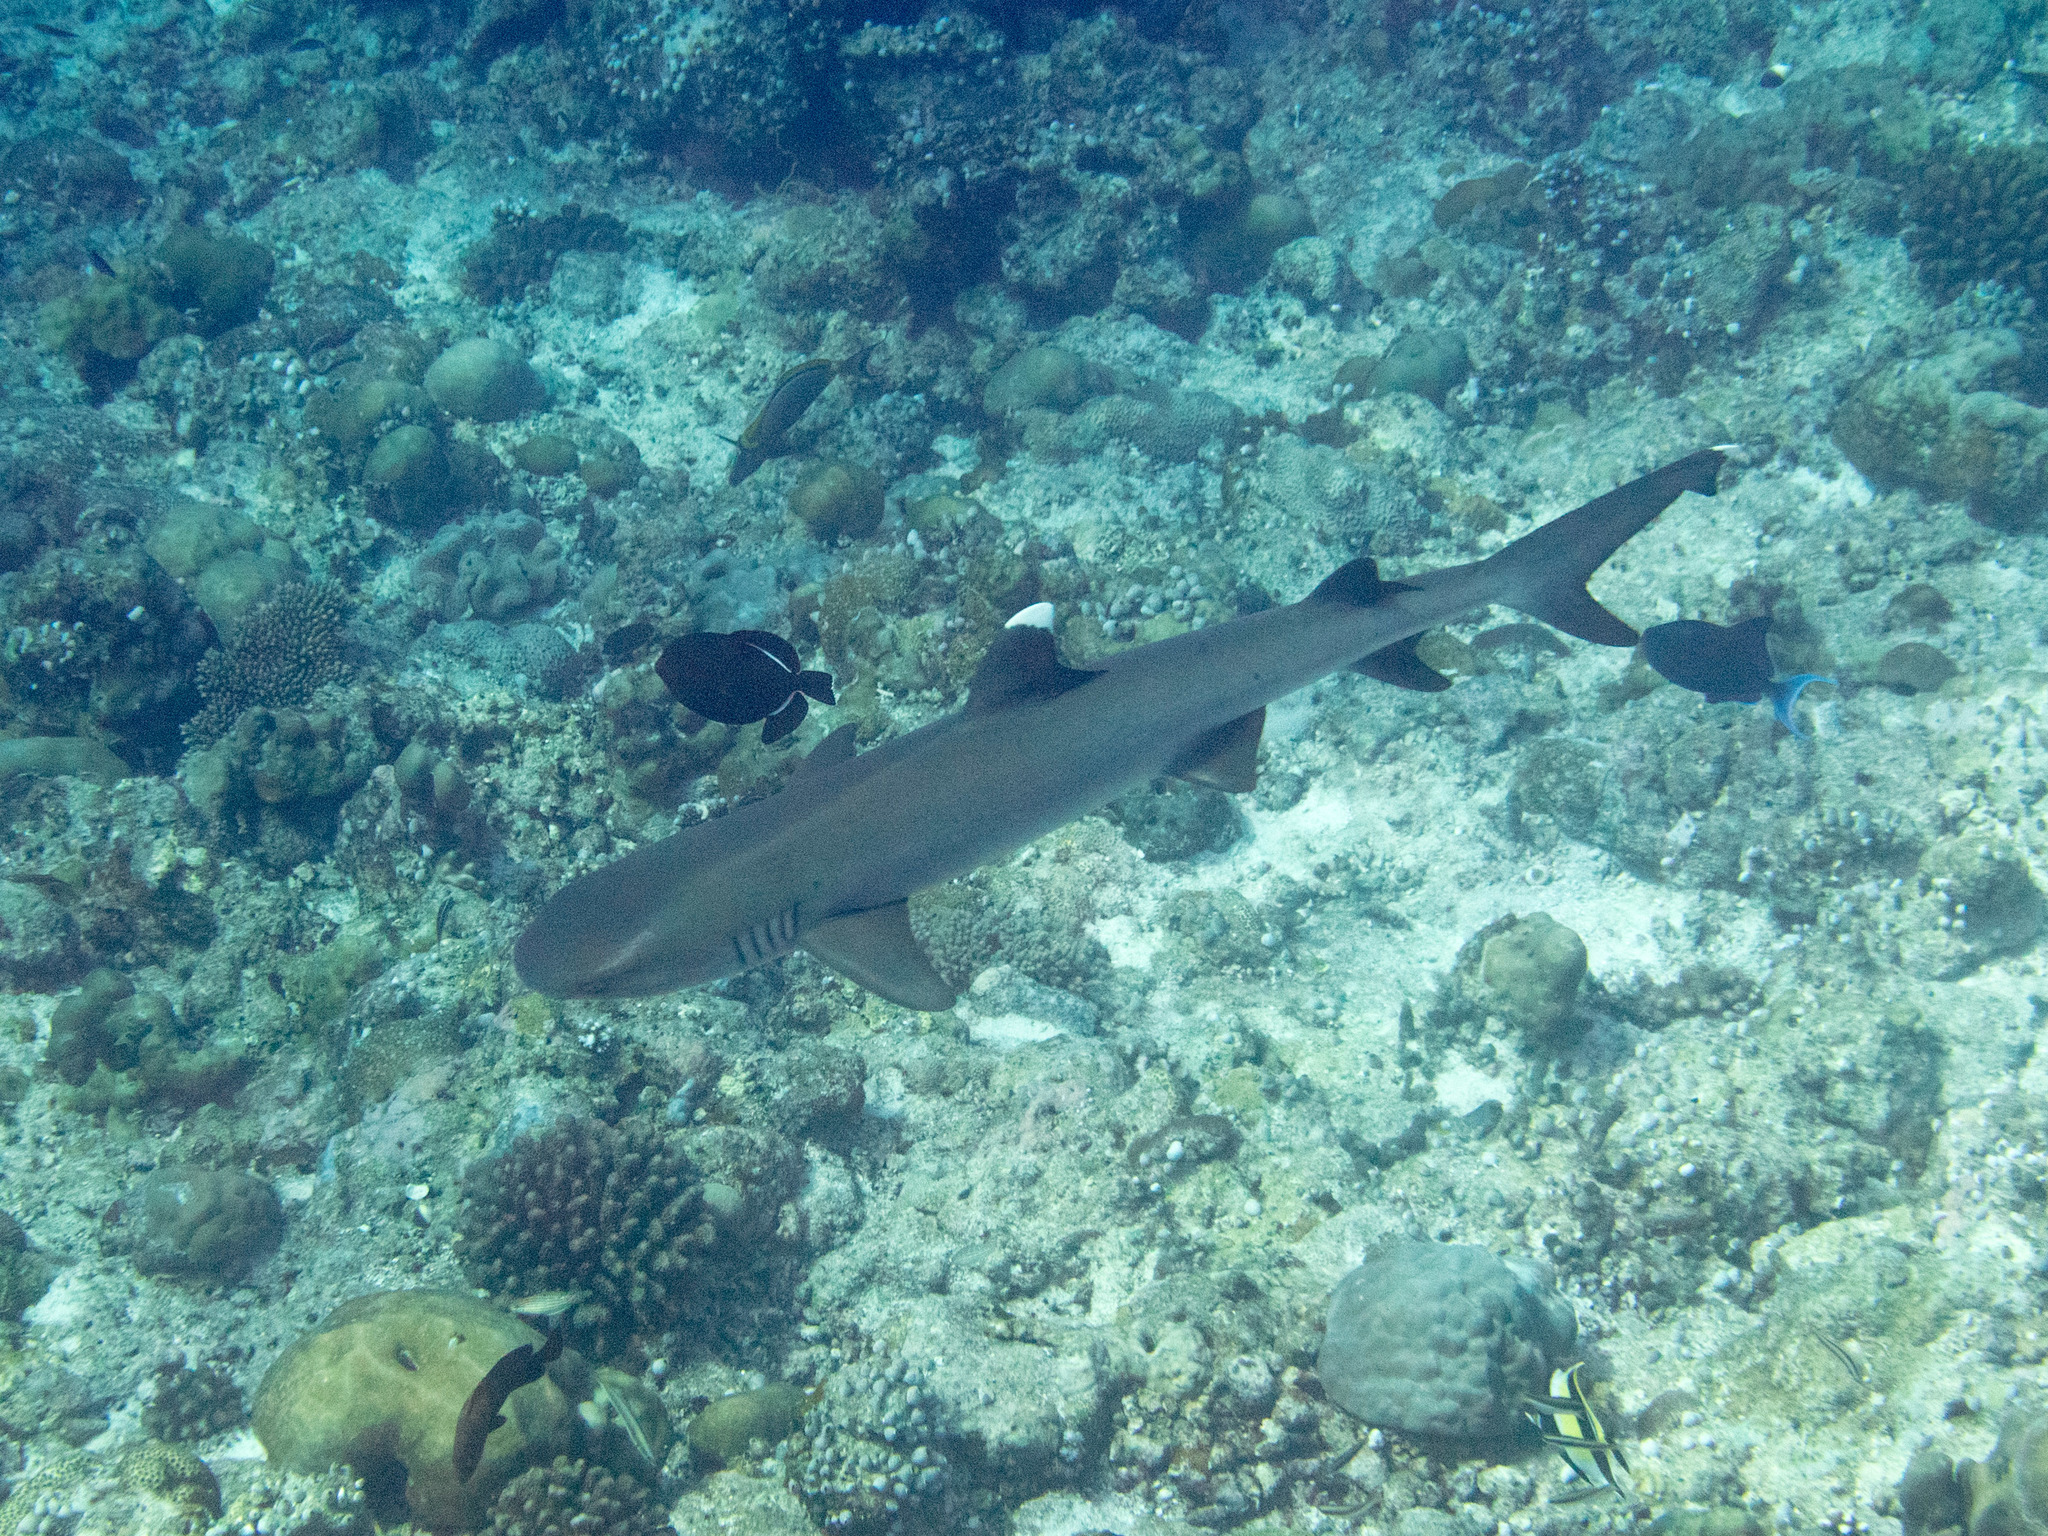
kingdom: Animalia
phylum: Chordata
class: Elasmobranchii
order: Carcharhiniformes
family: Carcharhinidae
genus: Triaenodon
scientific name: Triaenodon obesus
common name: Whitetip reef shark
